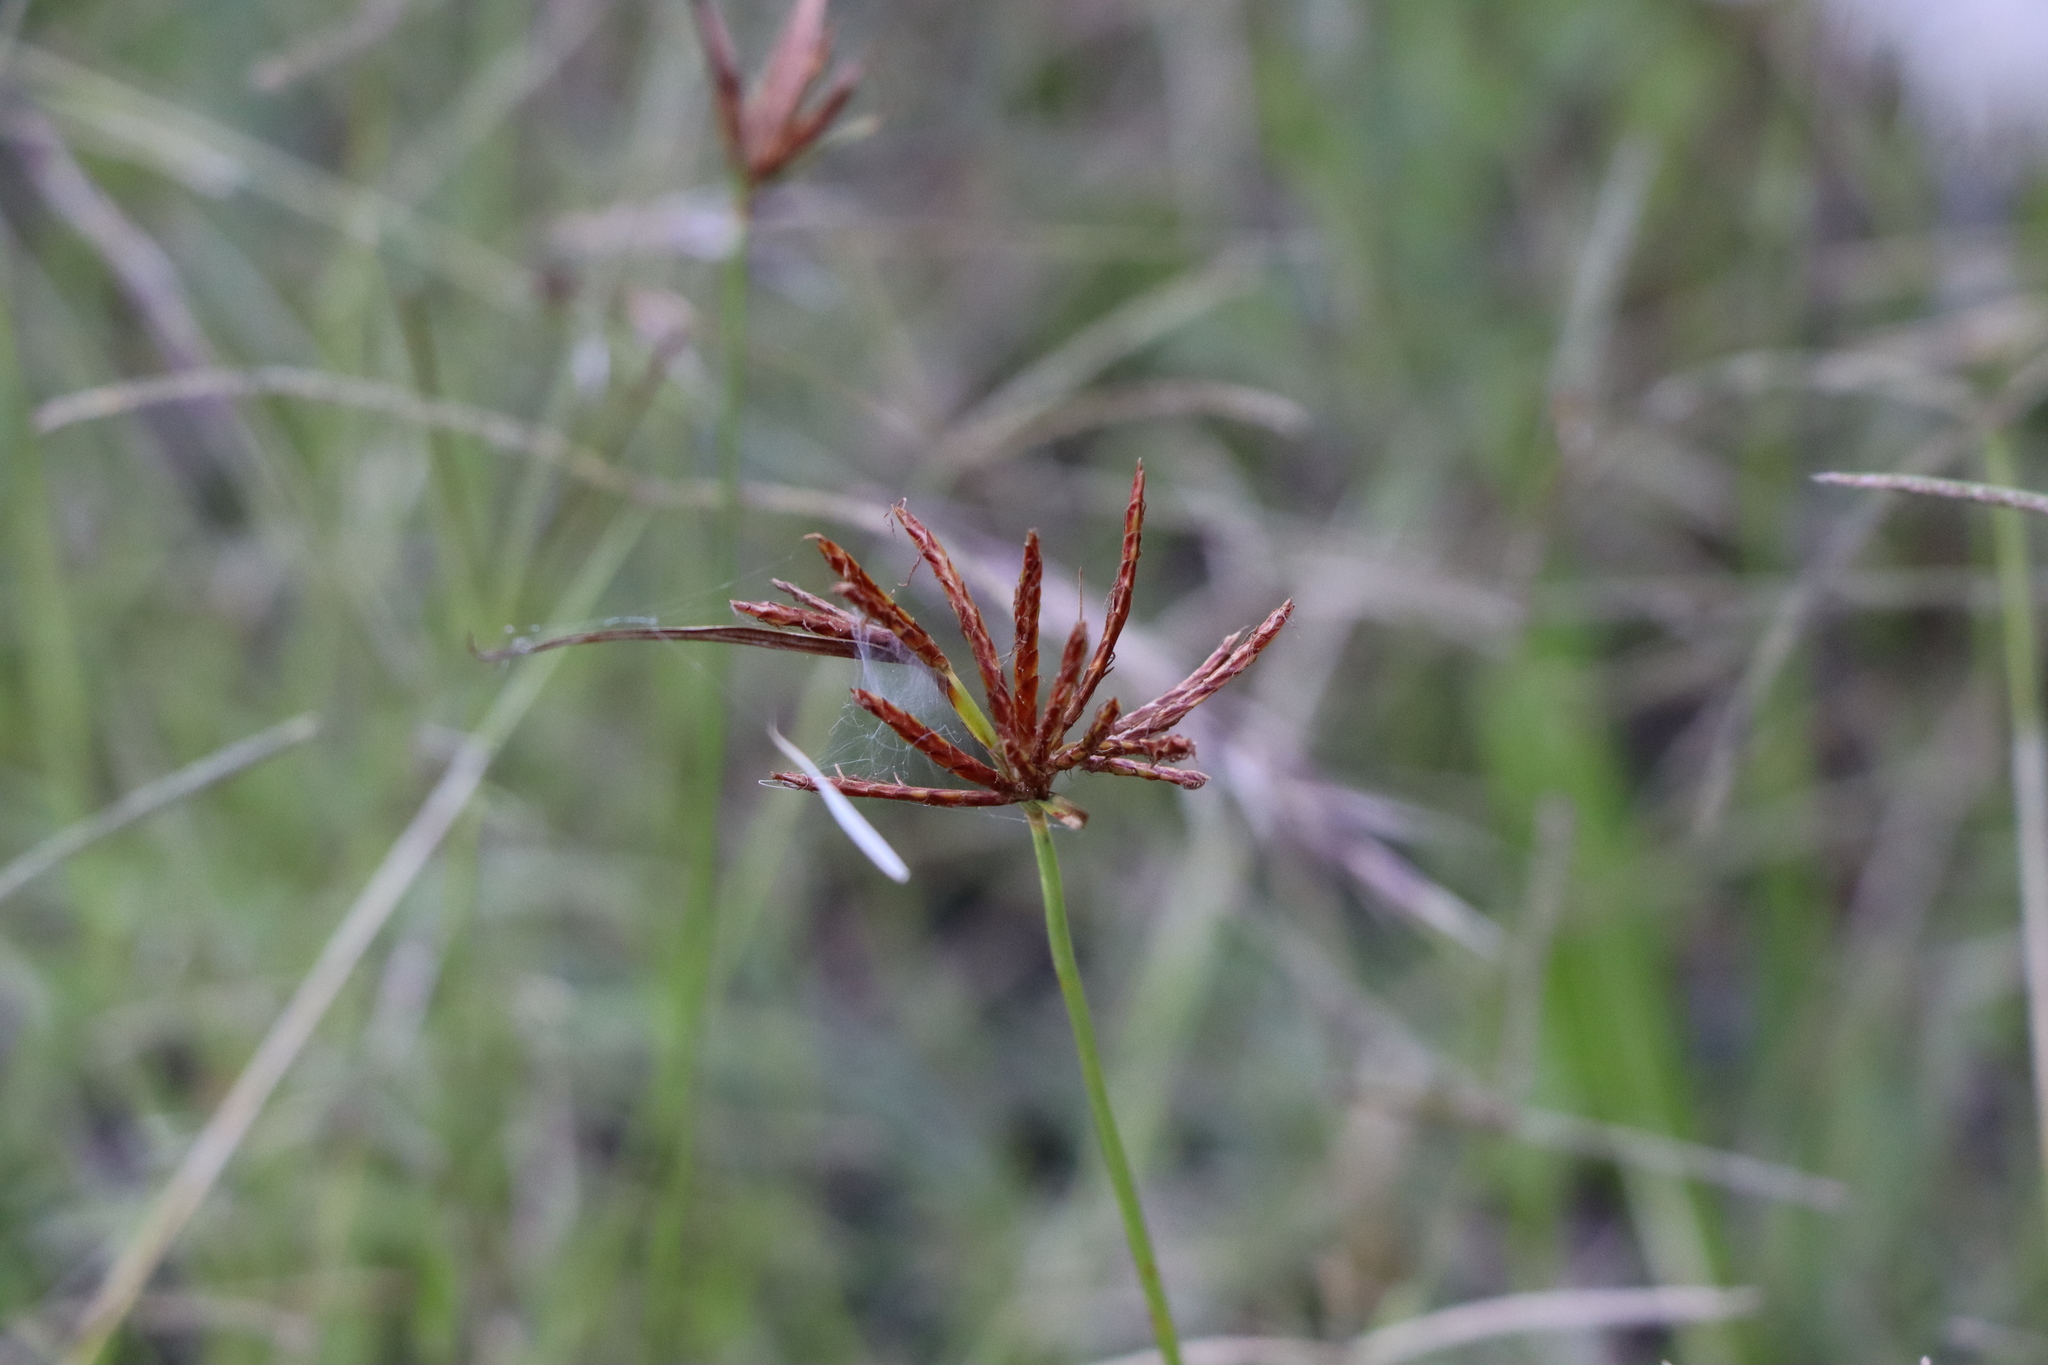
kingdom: Plantae
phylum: Tracheophyta
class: Liliopsida
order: Poales
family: Cyperaceae
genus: Cyperus
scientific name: Cyperus corymbosus
